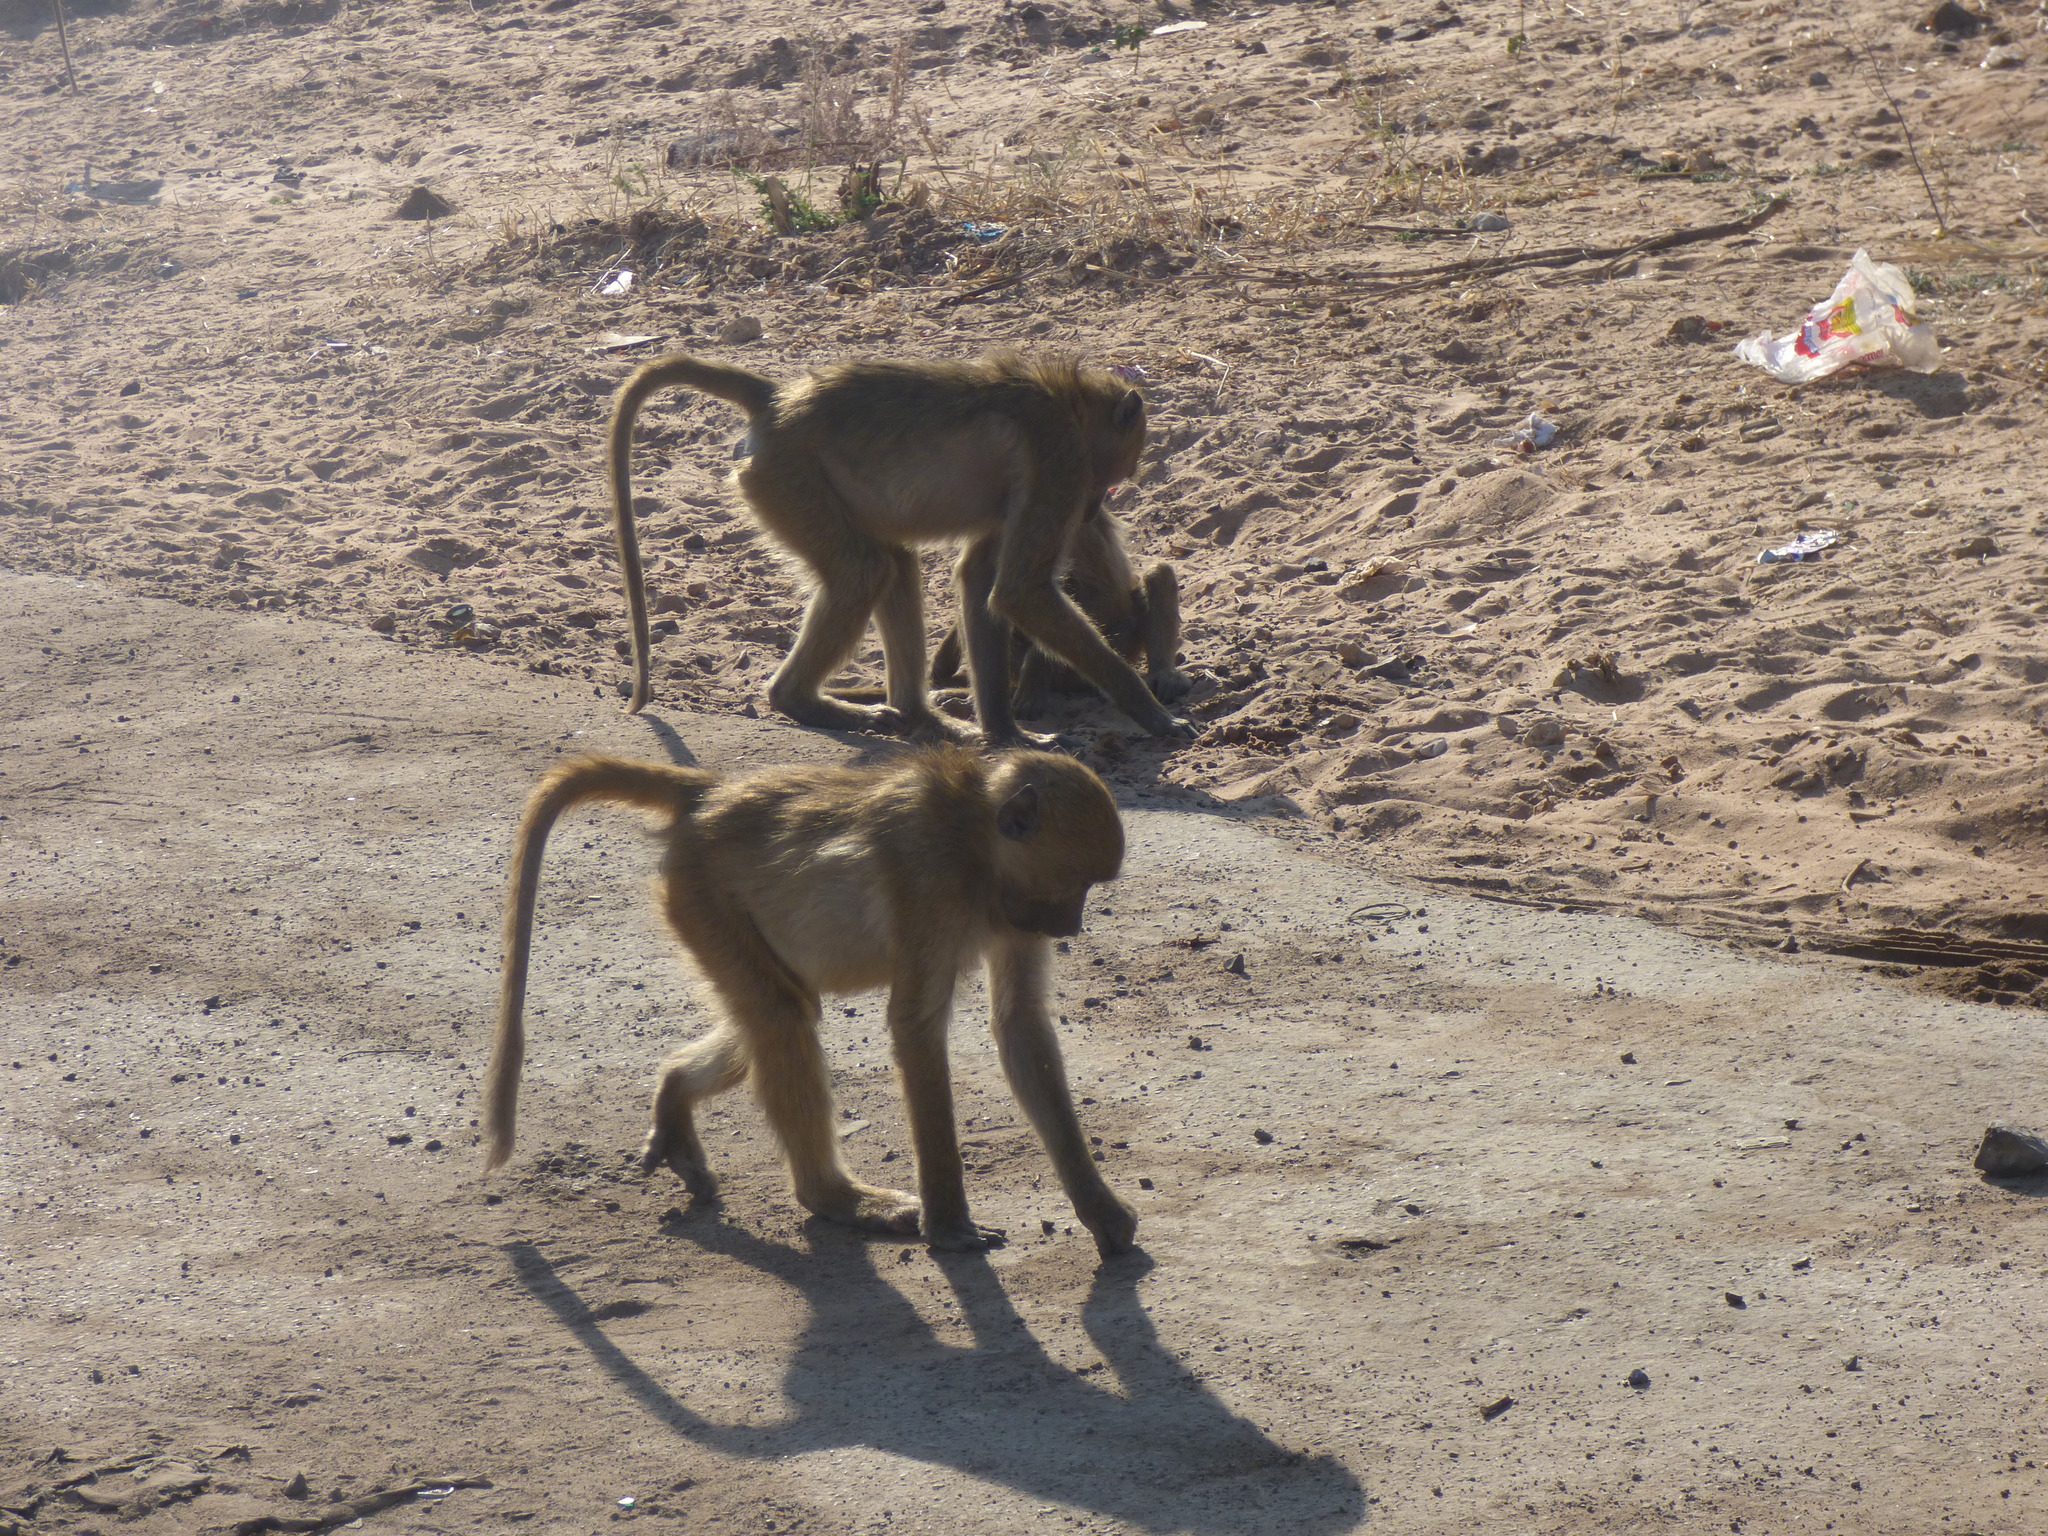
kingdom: Animalia
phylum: Chordata
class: Mammalia
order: Primates
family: Cercopithecidae
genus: Papio
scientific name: Papio ursinus
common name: Chacma baboon
